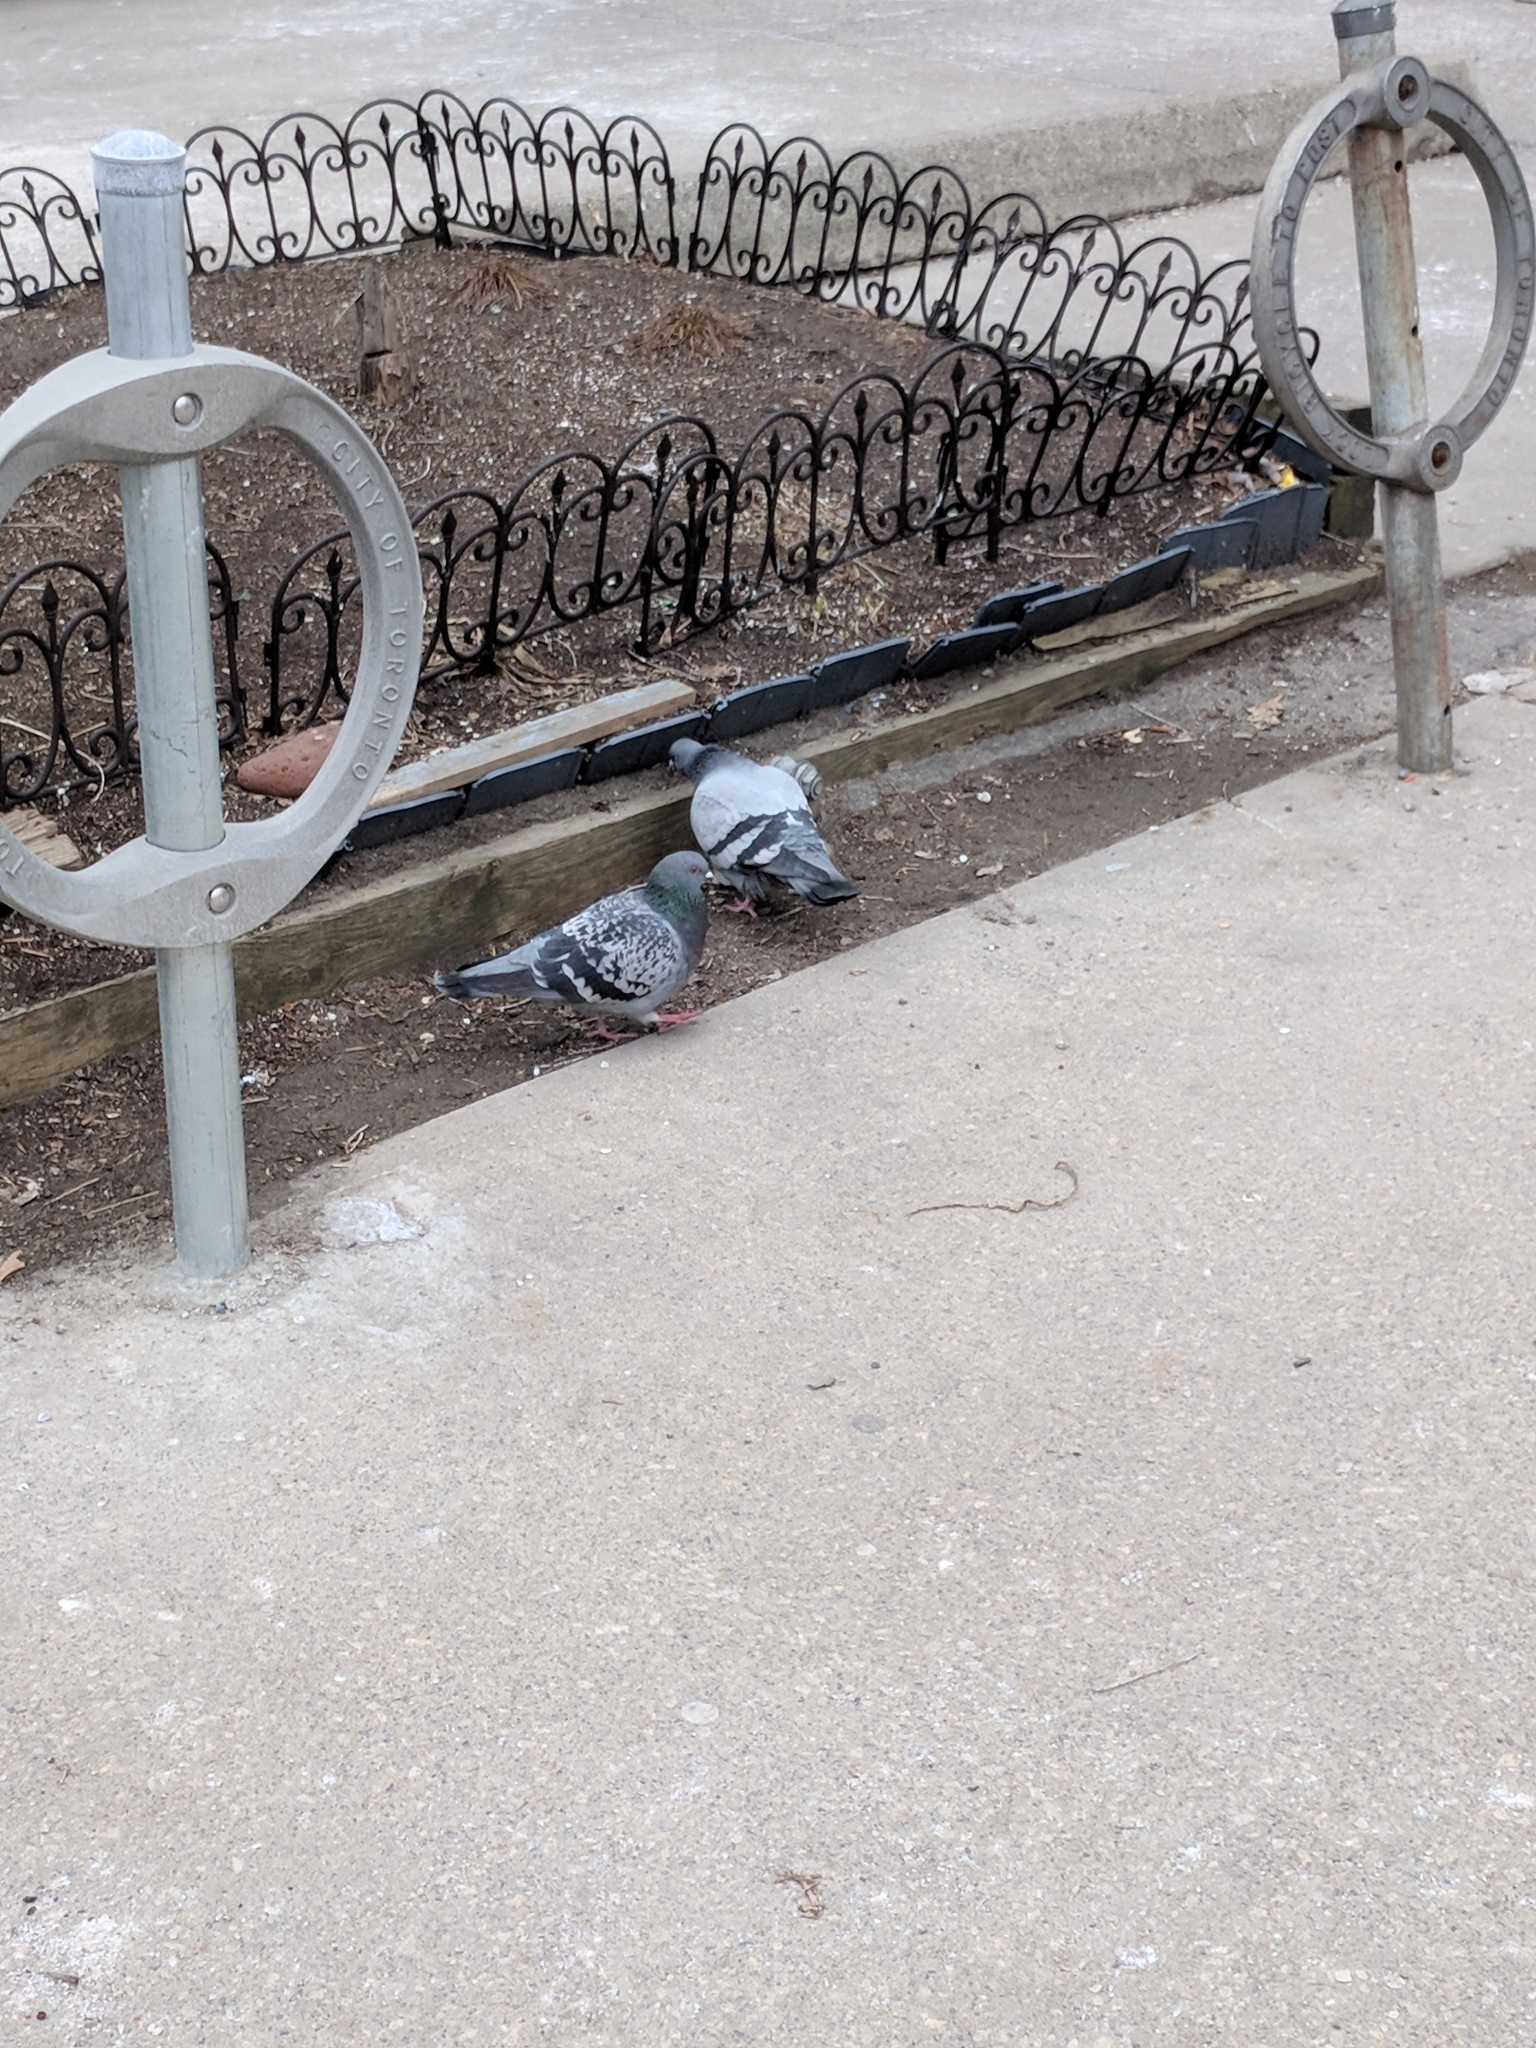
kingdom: Animalia
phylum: Chordata
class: Aves
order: Columbiformes
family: Columbidae
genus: Columba
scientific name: Columba livia
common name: Rock pigeon
